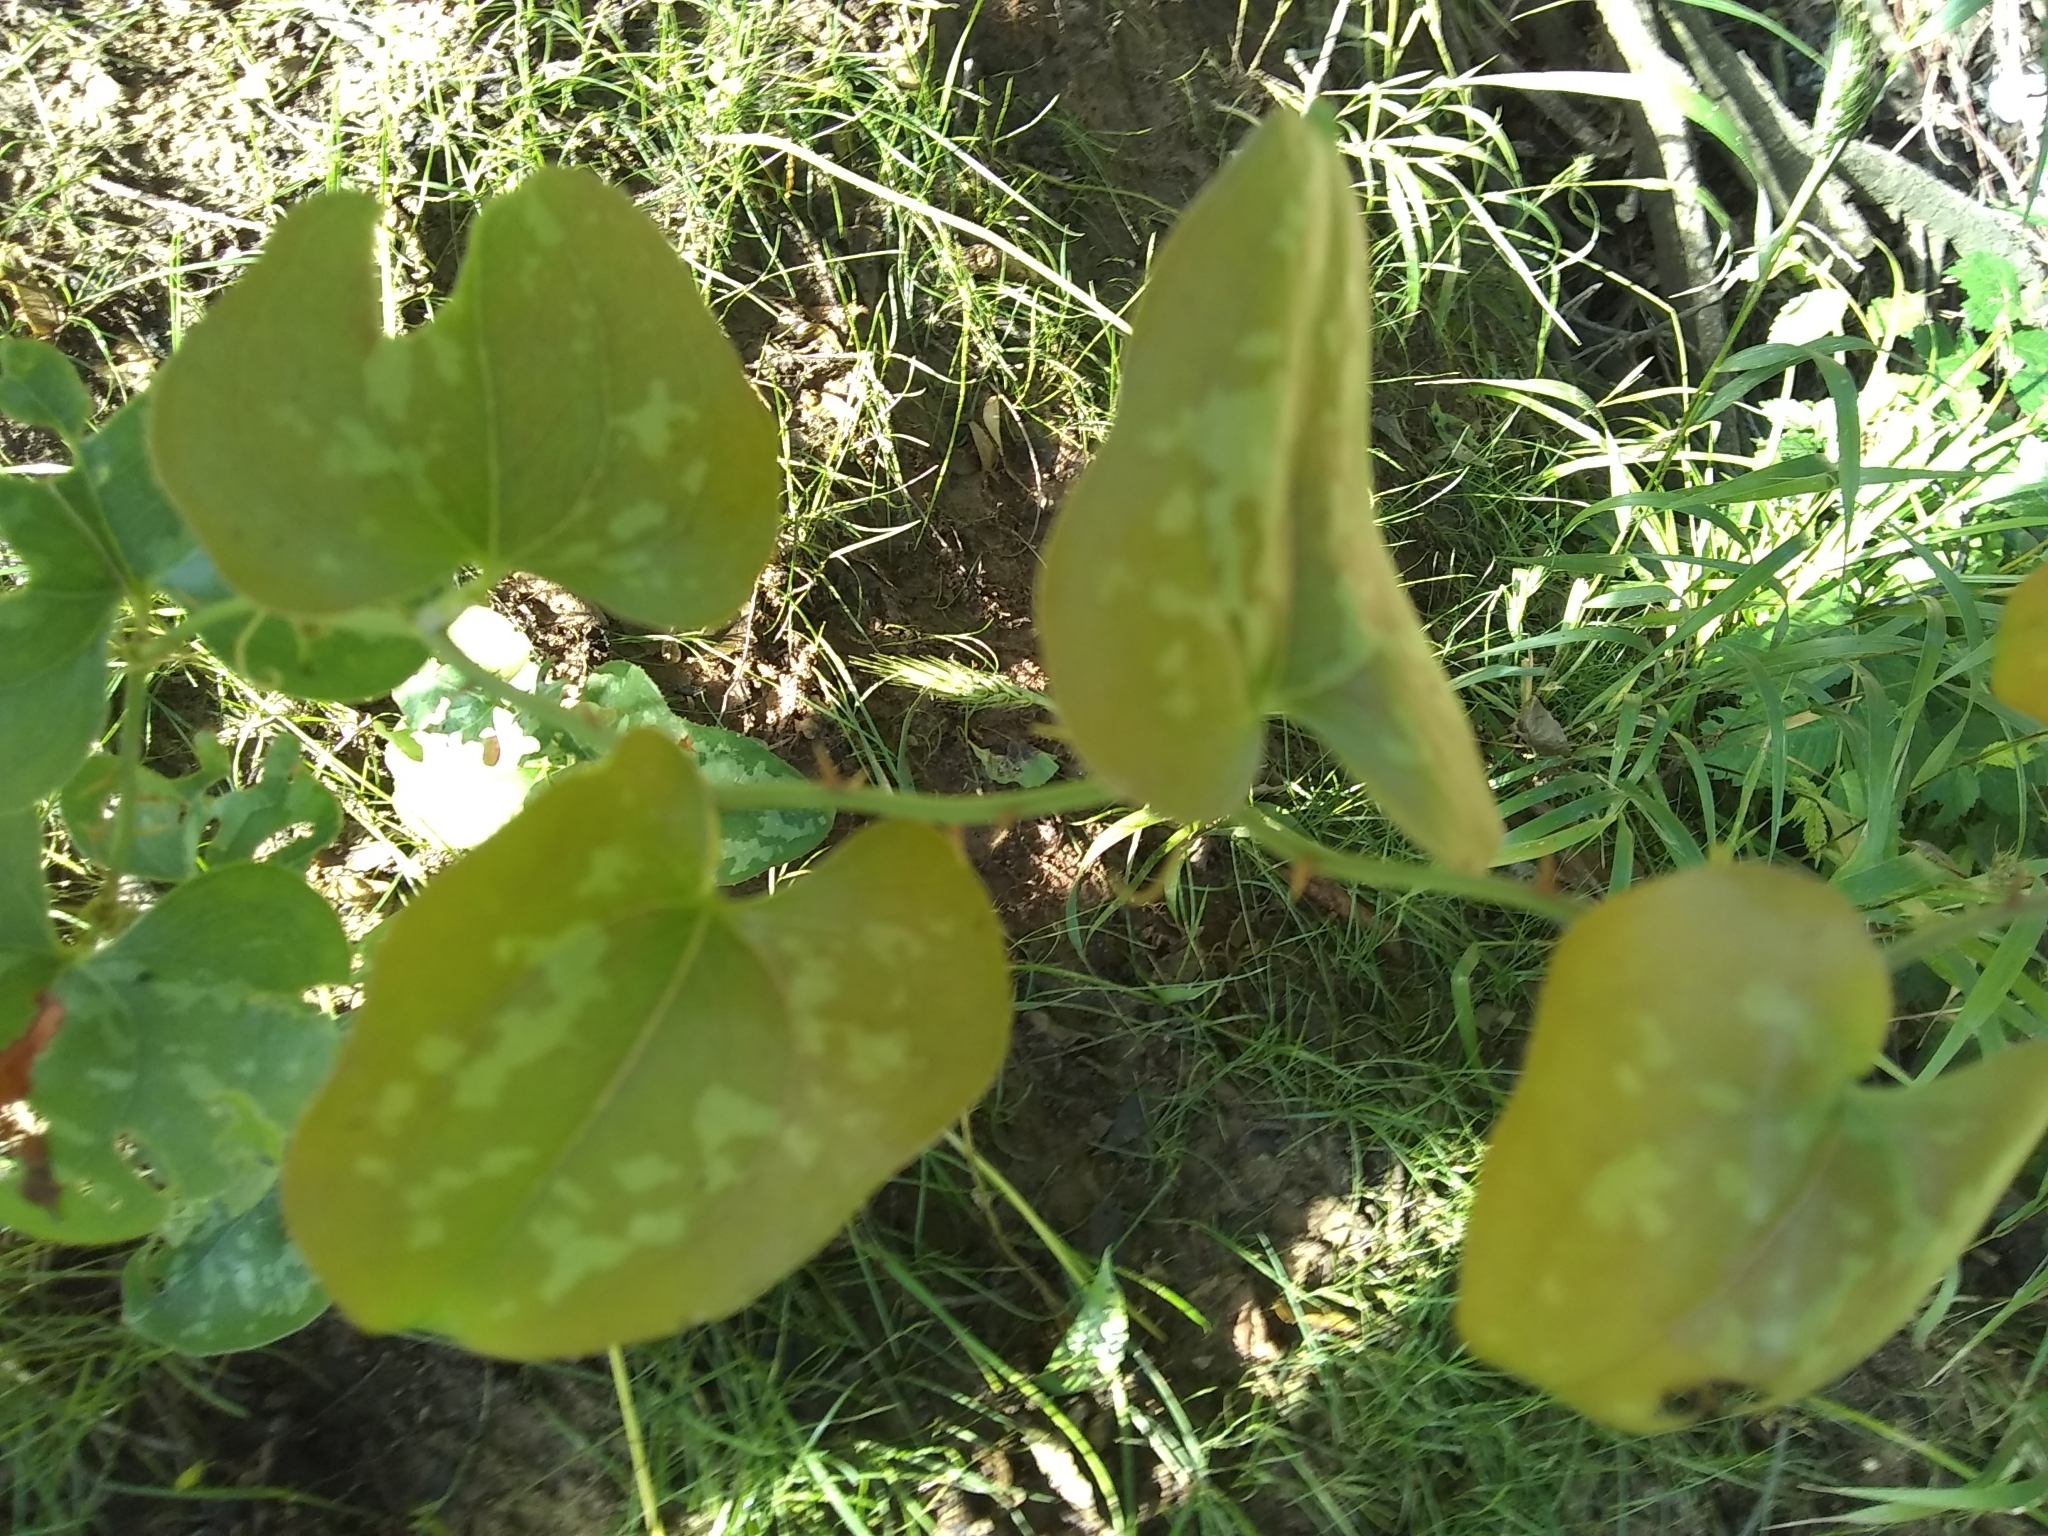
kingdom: Plantae
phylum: Tracheophyta
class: Liliopsida
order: Liliales
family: Smilacaceae
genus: Smilax
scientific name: Smilax bona-nox
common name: Catbrier
